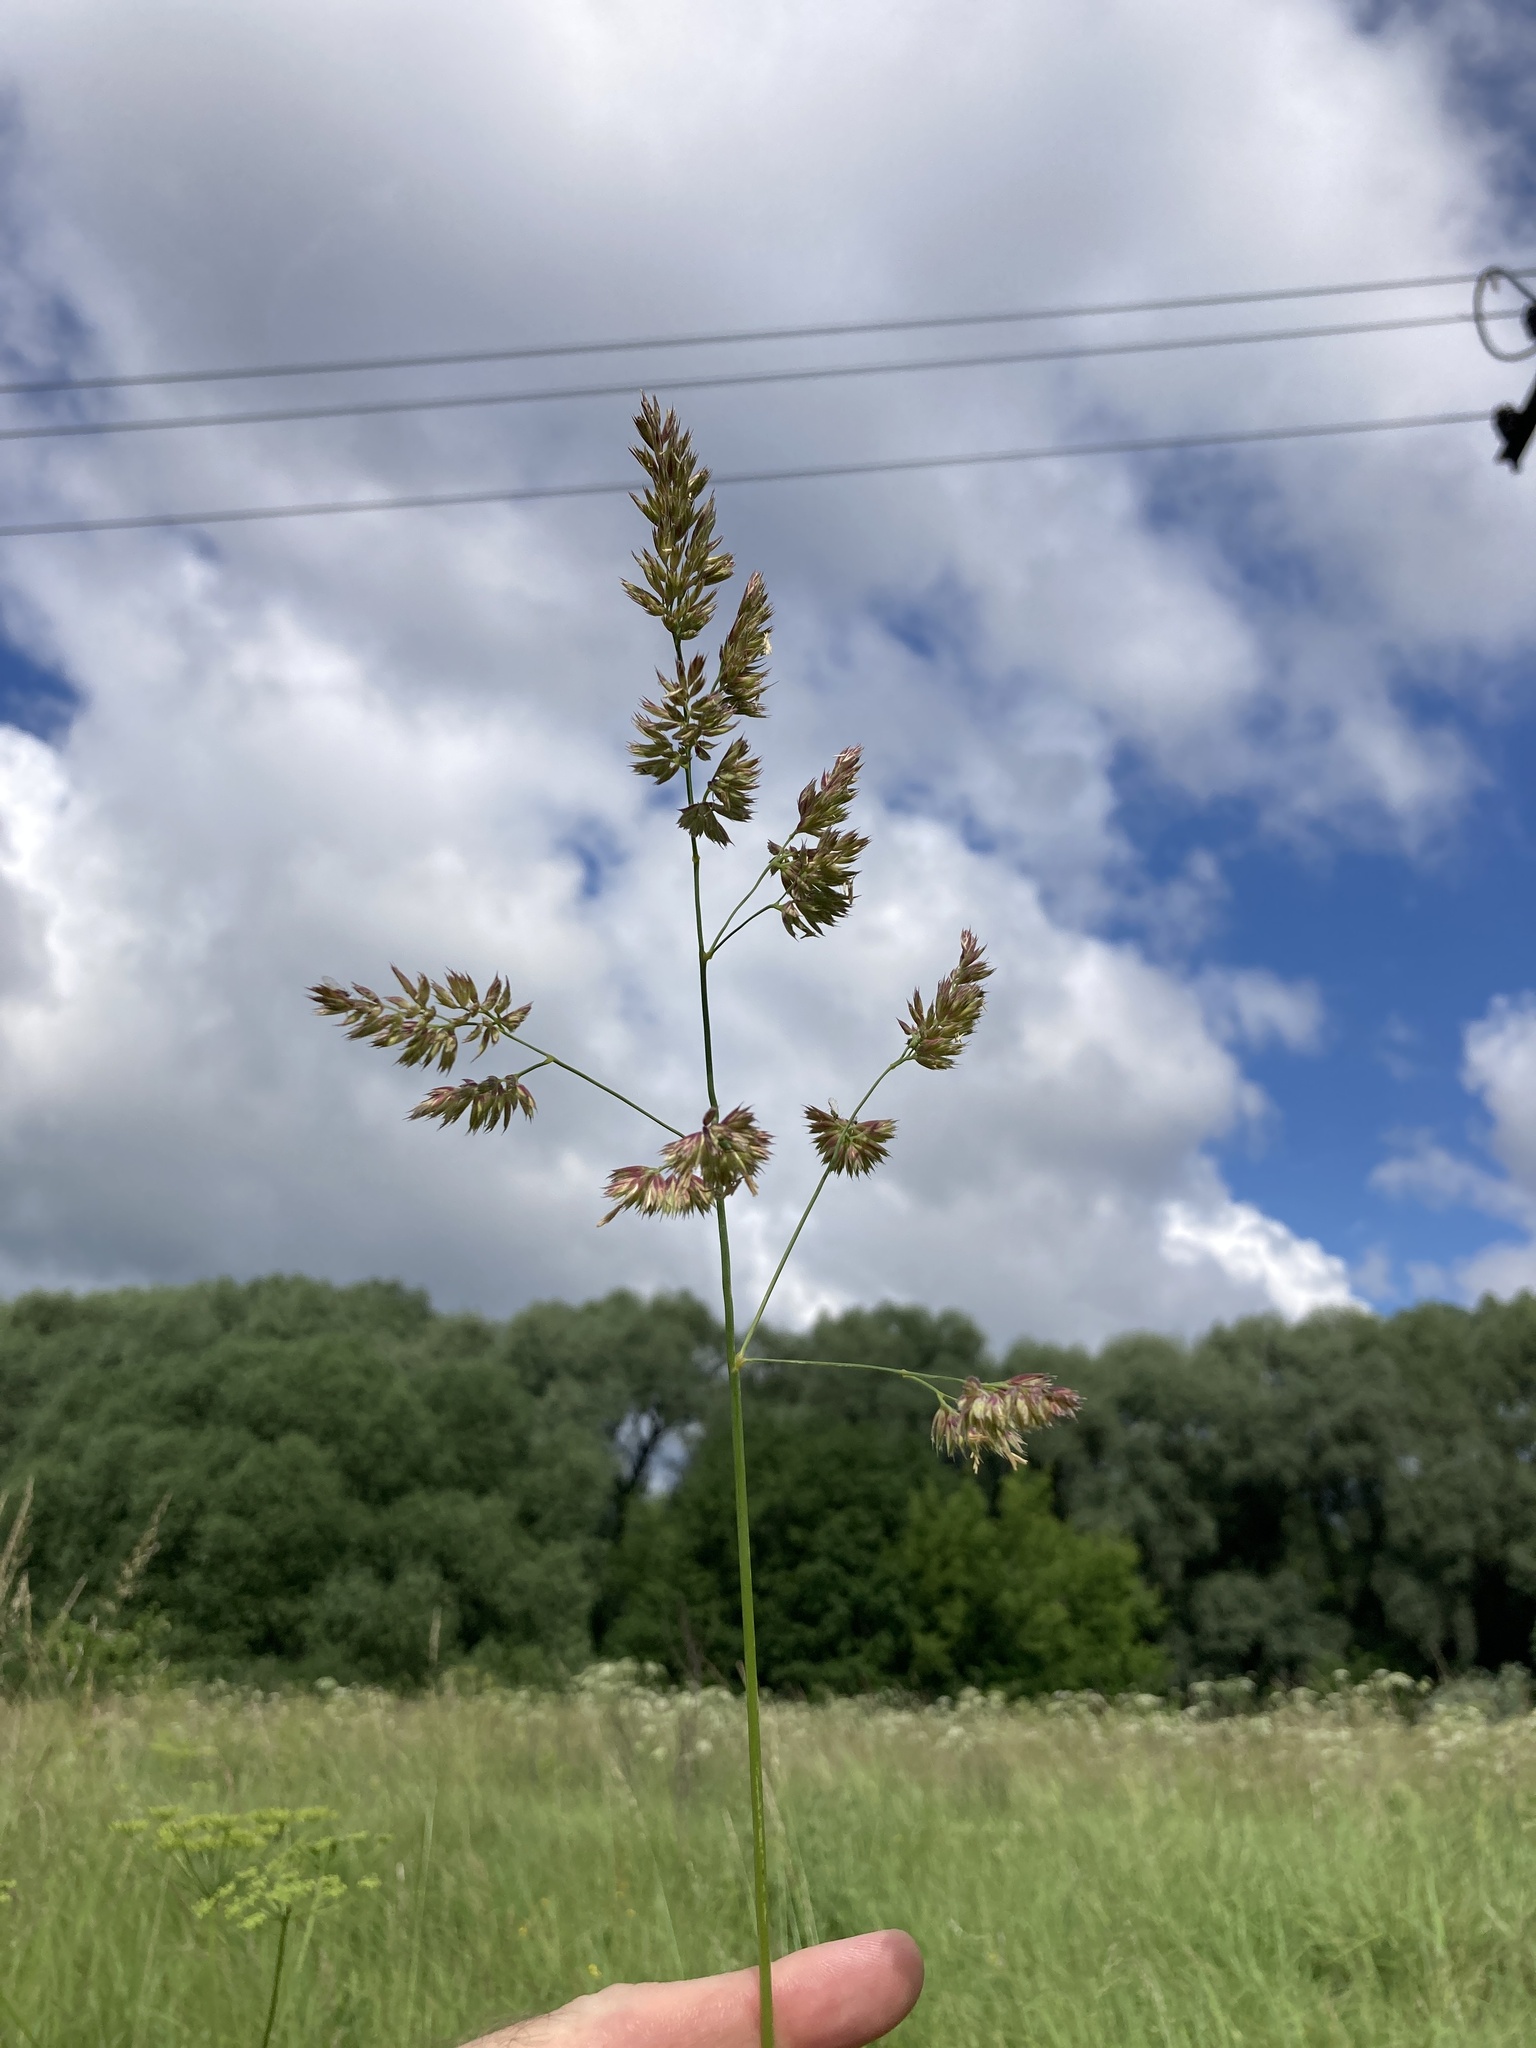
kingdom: Plantae
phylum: Tracheophyta
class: Liliopsida
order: Poales
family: Poaceae
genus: Dactylis
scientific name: Dactylis glomerata
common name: Orchardgrass
